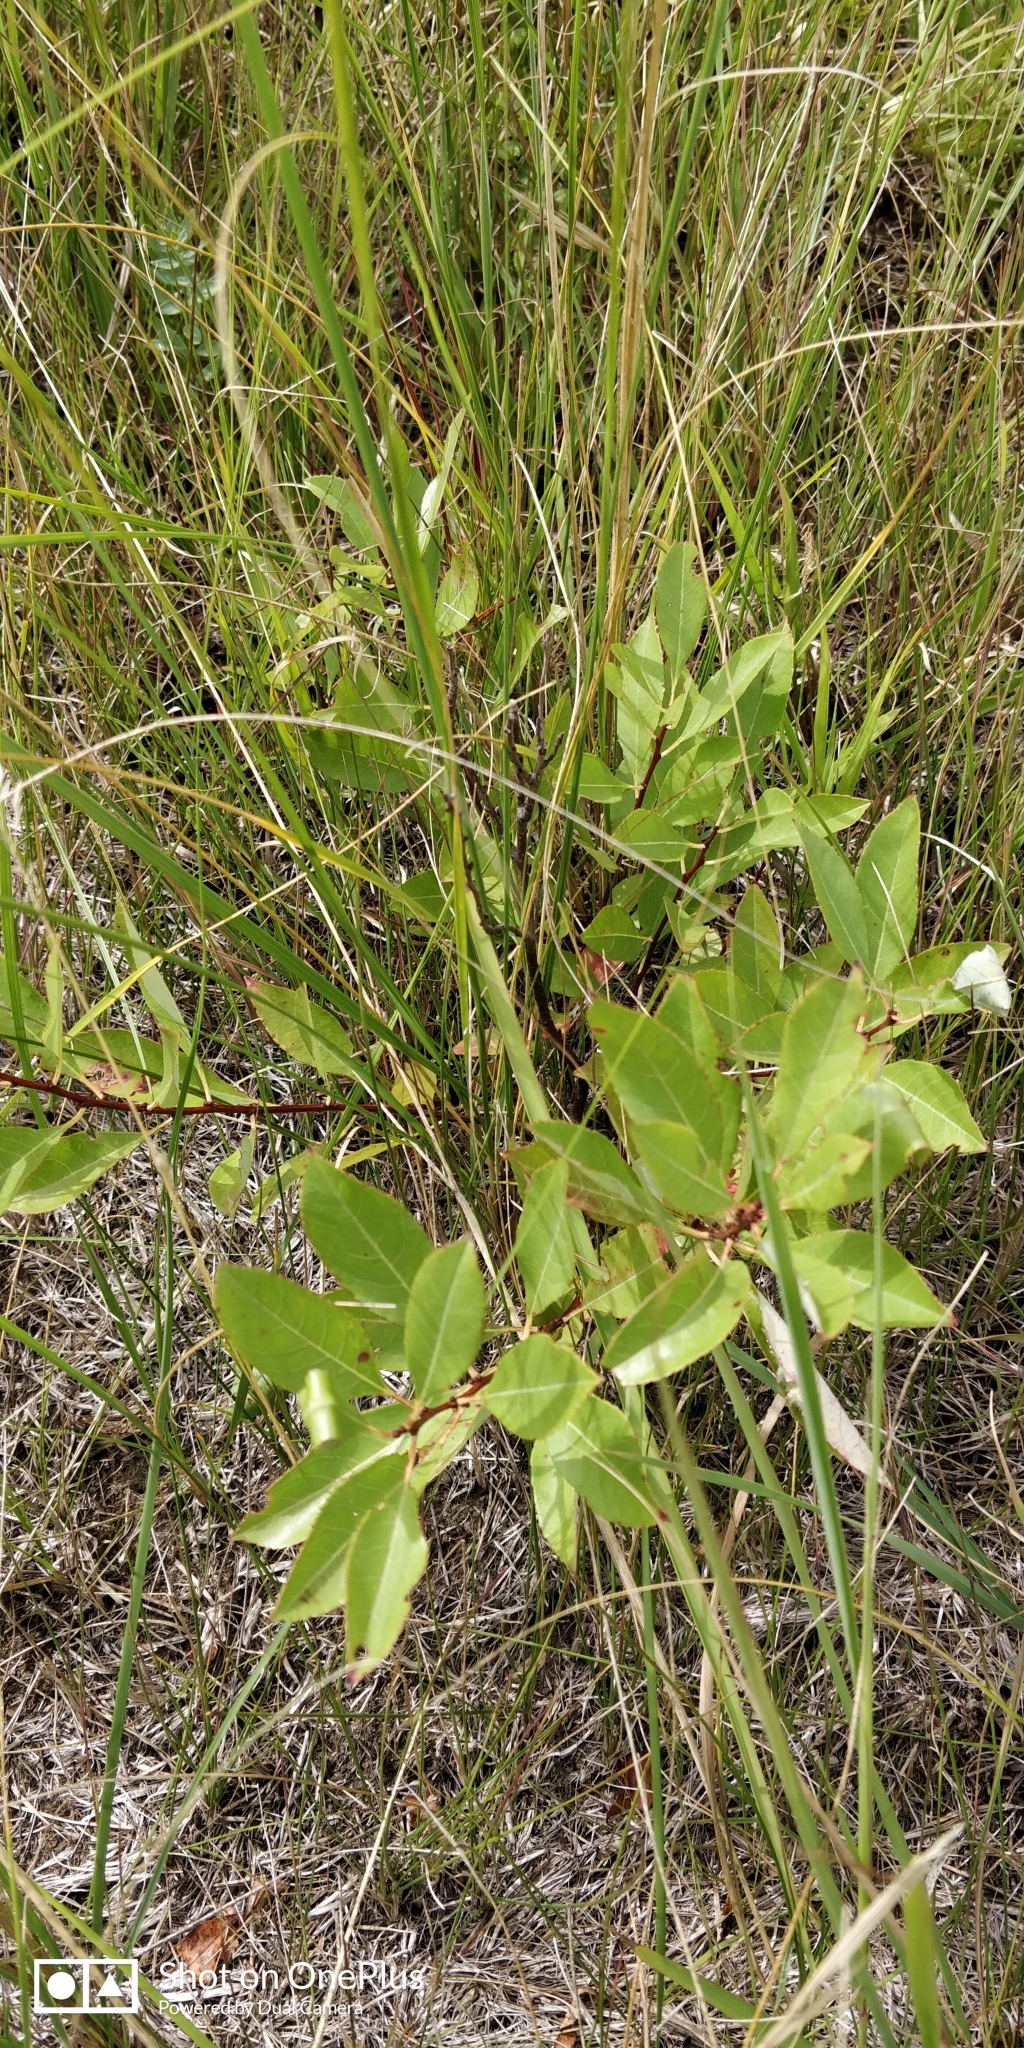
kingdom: Plantae
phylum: Tracheophyta
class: Magnoliopsida
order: Rosales
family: Rosaceae
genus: Prunus
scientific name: Prunus pumila
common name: Dwarf cherry
